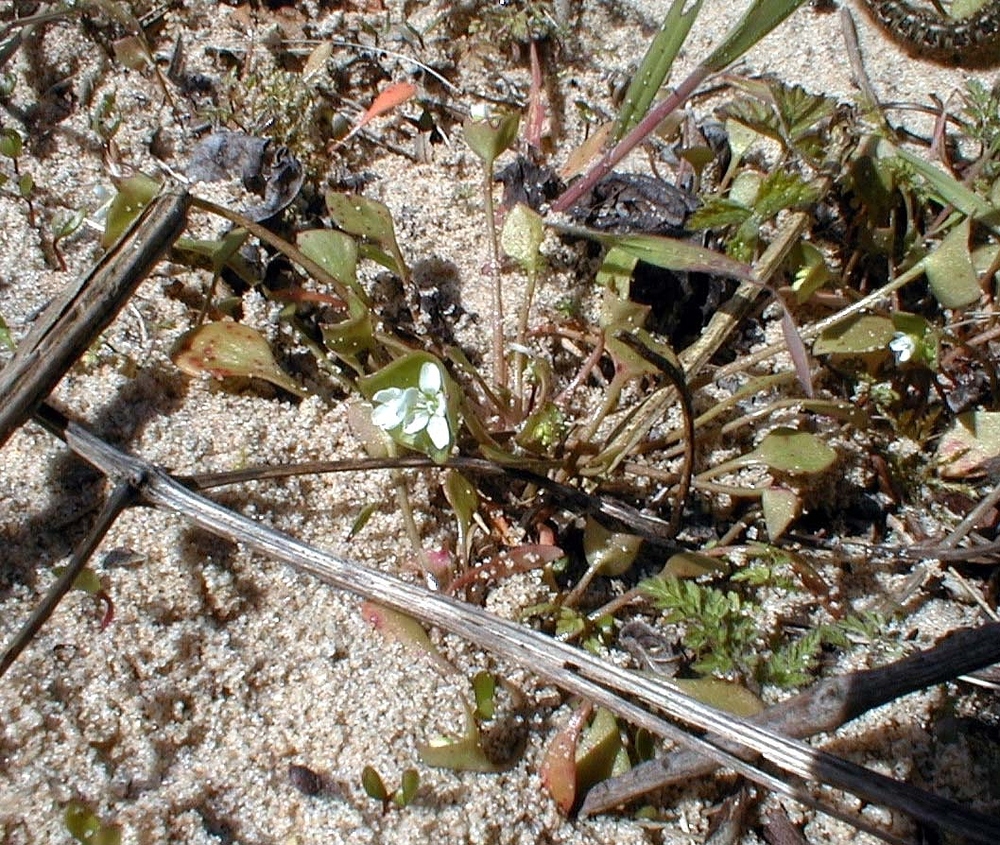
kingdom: Plantae
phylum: Tracheophyta
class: Magnoliopsida
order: Caryophyllales
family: Montiaceae
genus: Claytonia
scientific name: Claytonia perfoliata
